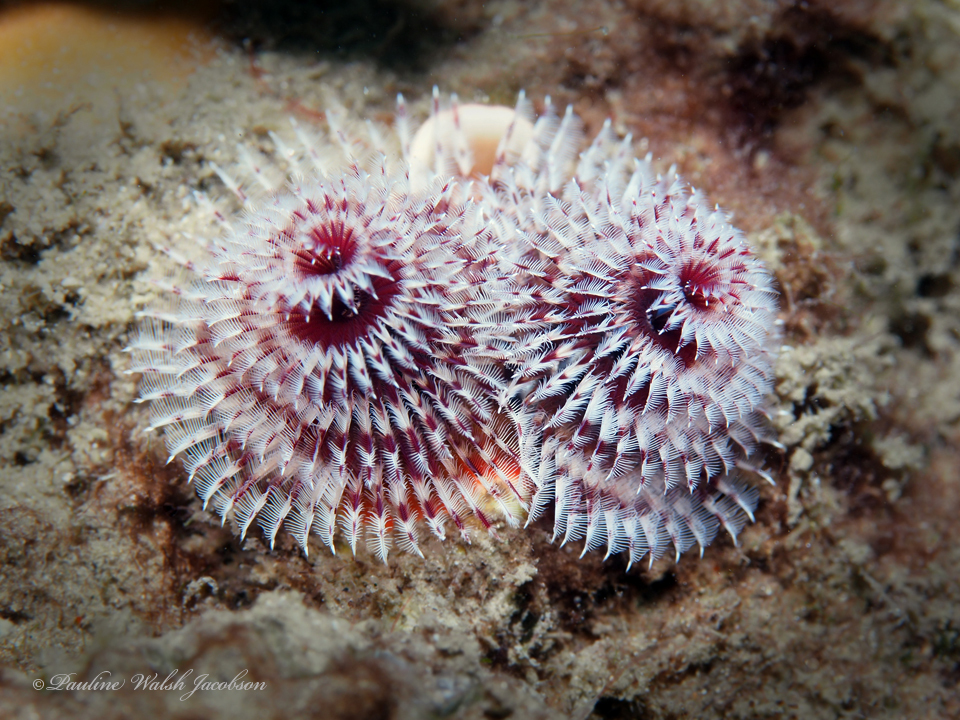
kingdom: Animalia
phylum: Annelida
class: Polychaeta
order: Sabellida
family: Serpulidae
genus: Spirobranchus
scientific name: Spirobranchus giganteus
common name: Christmas tree worm
